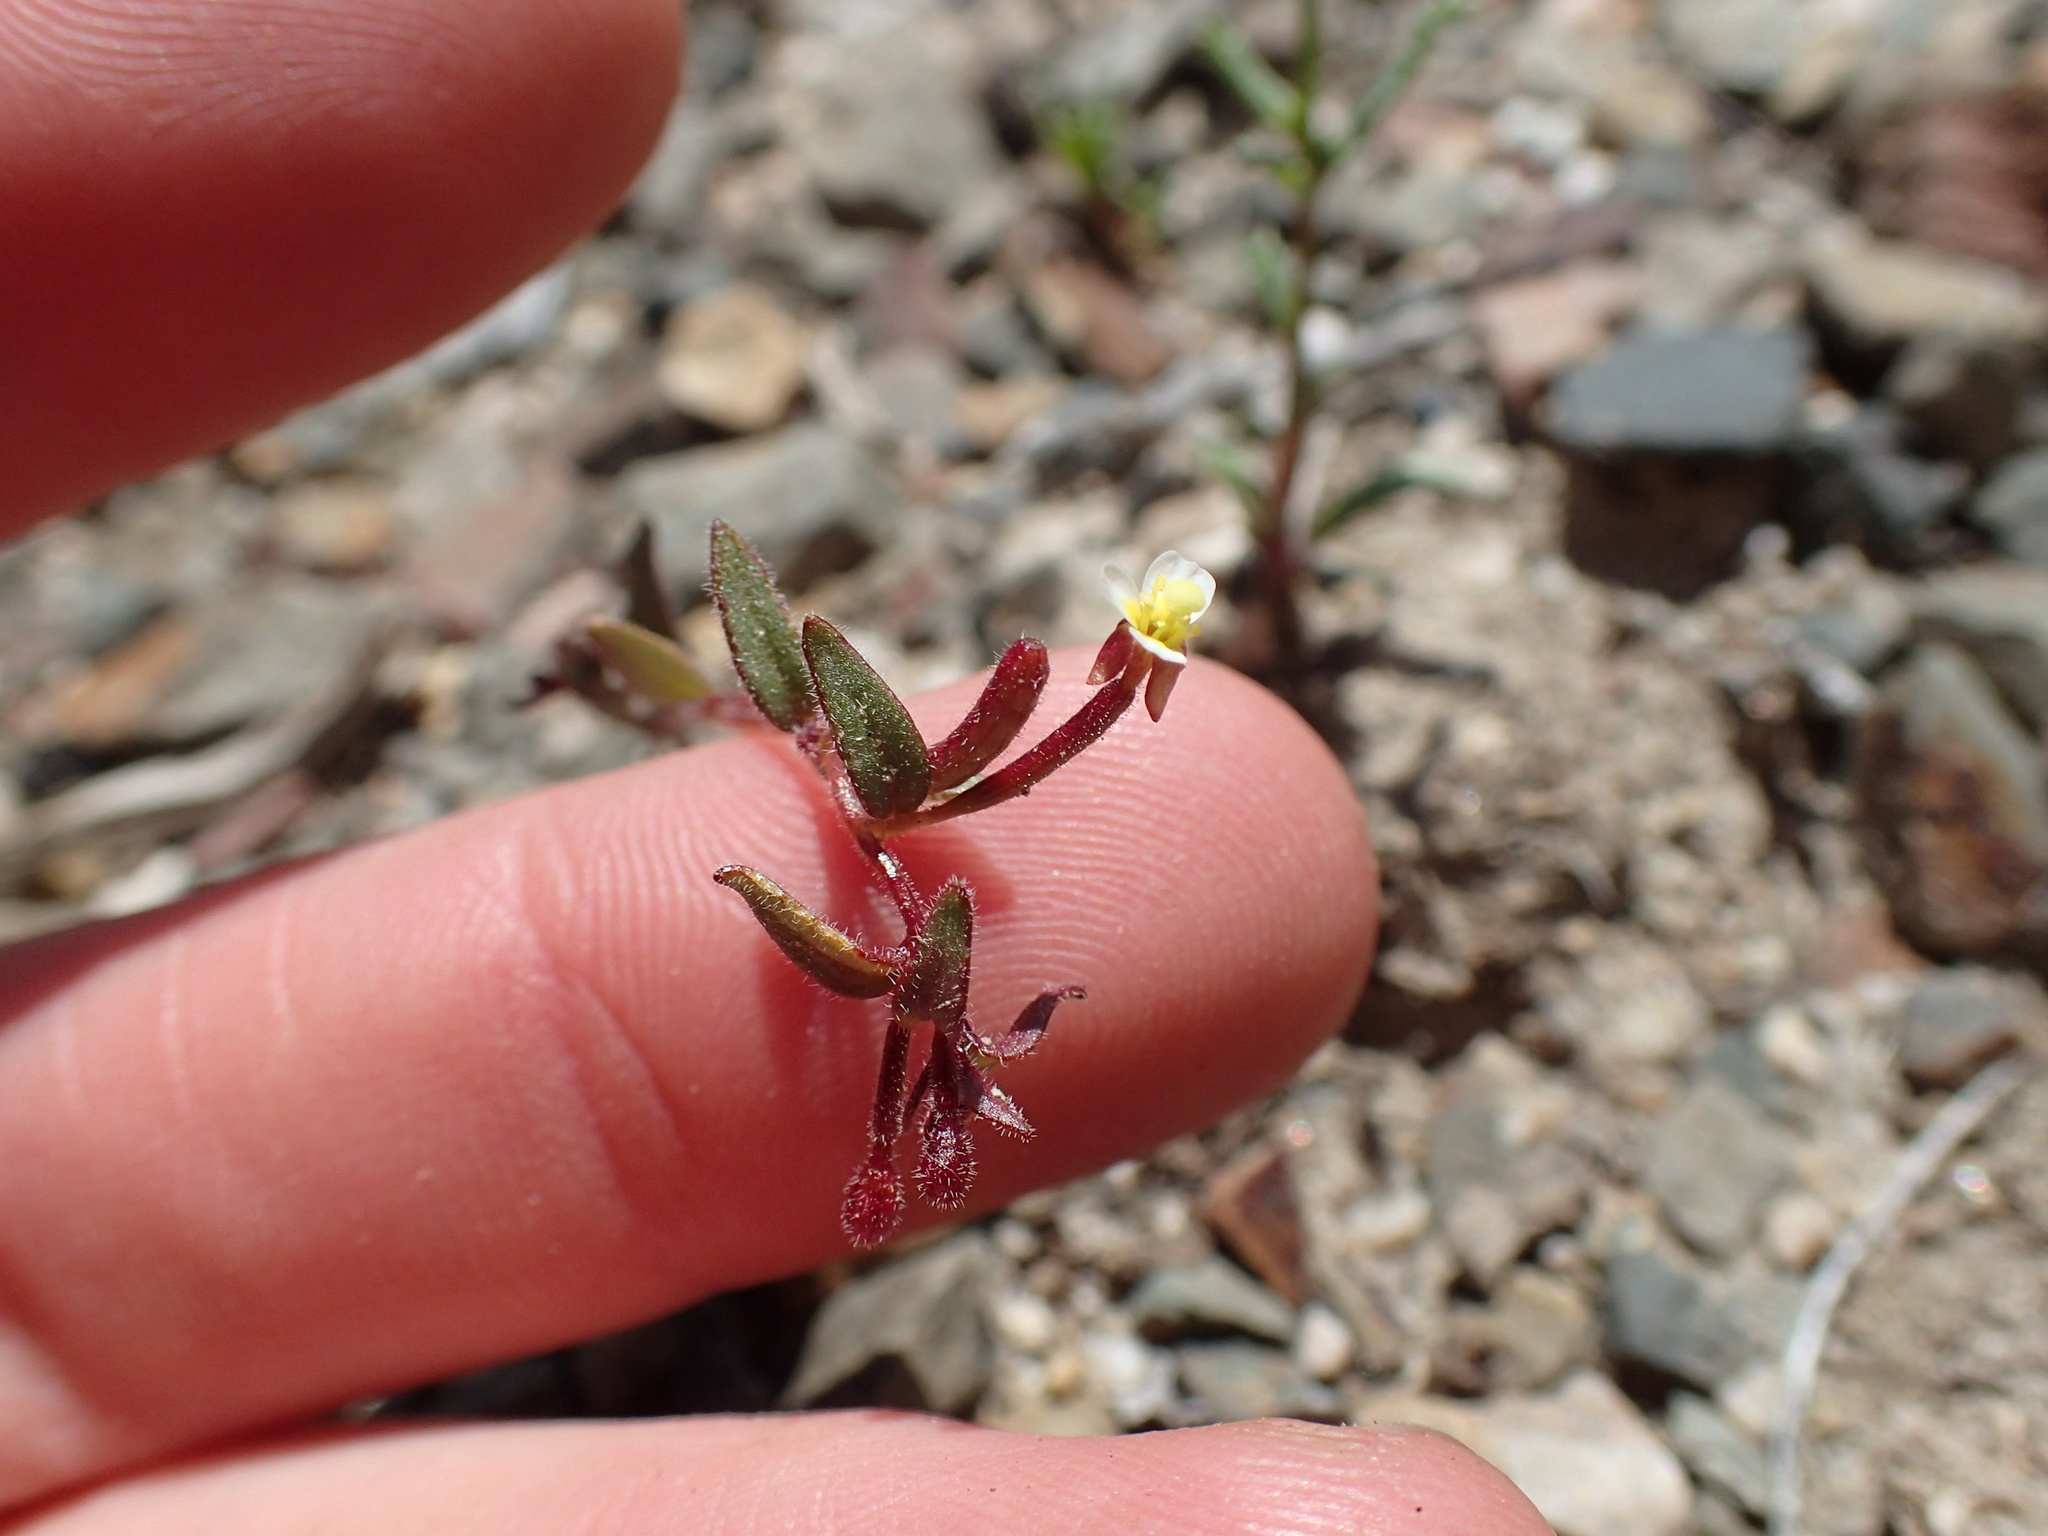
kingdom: Plantae
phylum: Tracheophyta
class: Magnoliopsida
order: Myrtales
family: Onagraceae
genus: Chylismiella
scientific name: Chylismiella pterosperma
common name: Wingfruit suncup
